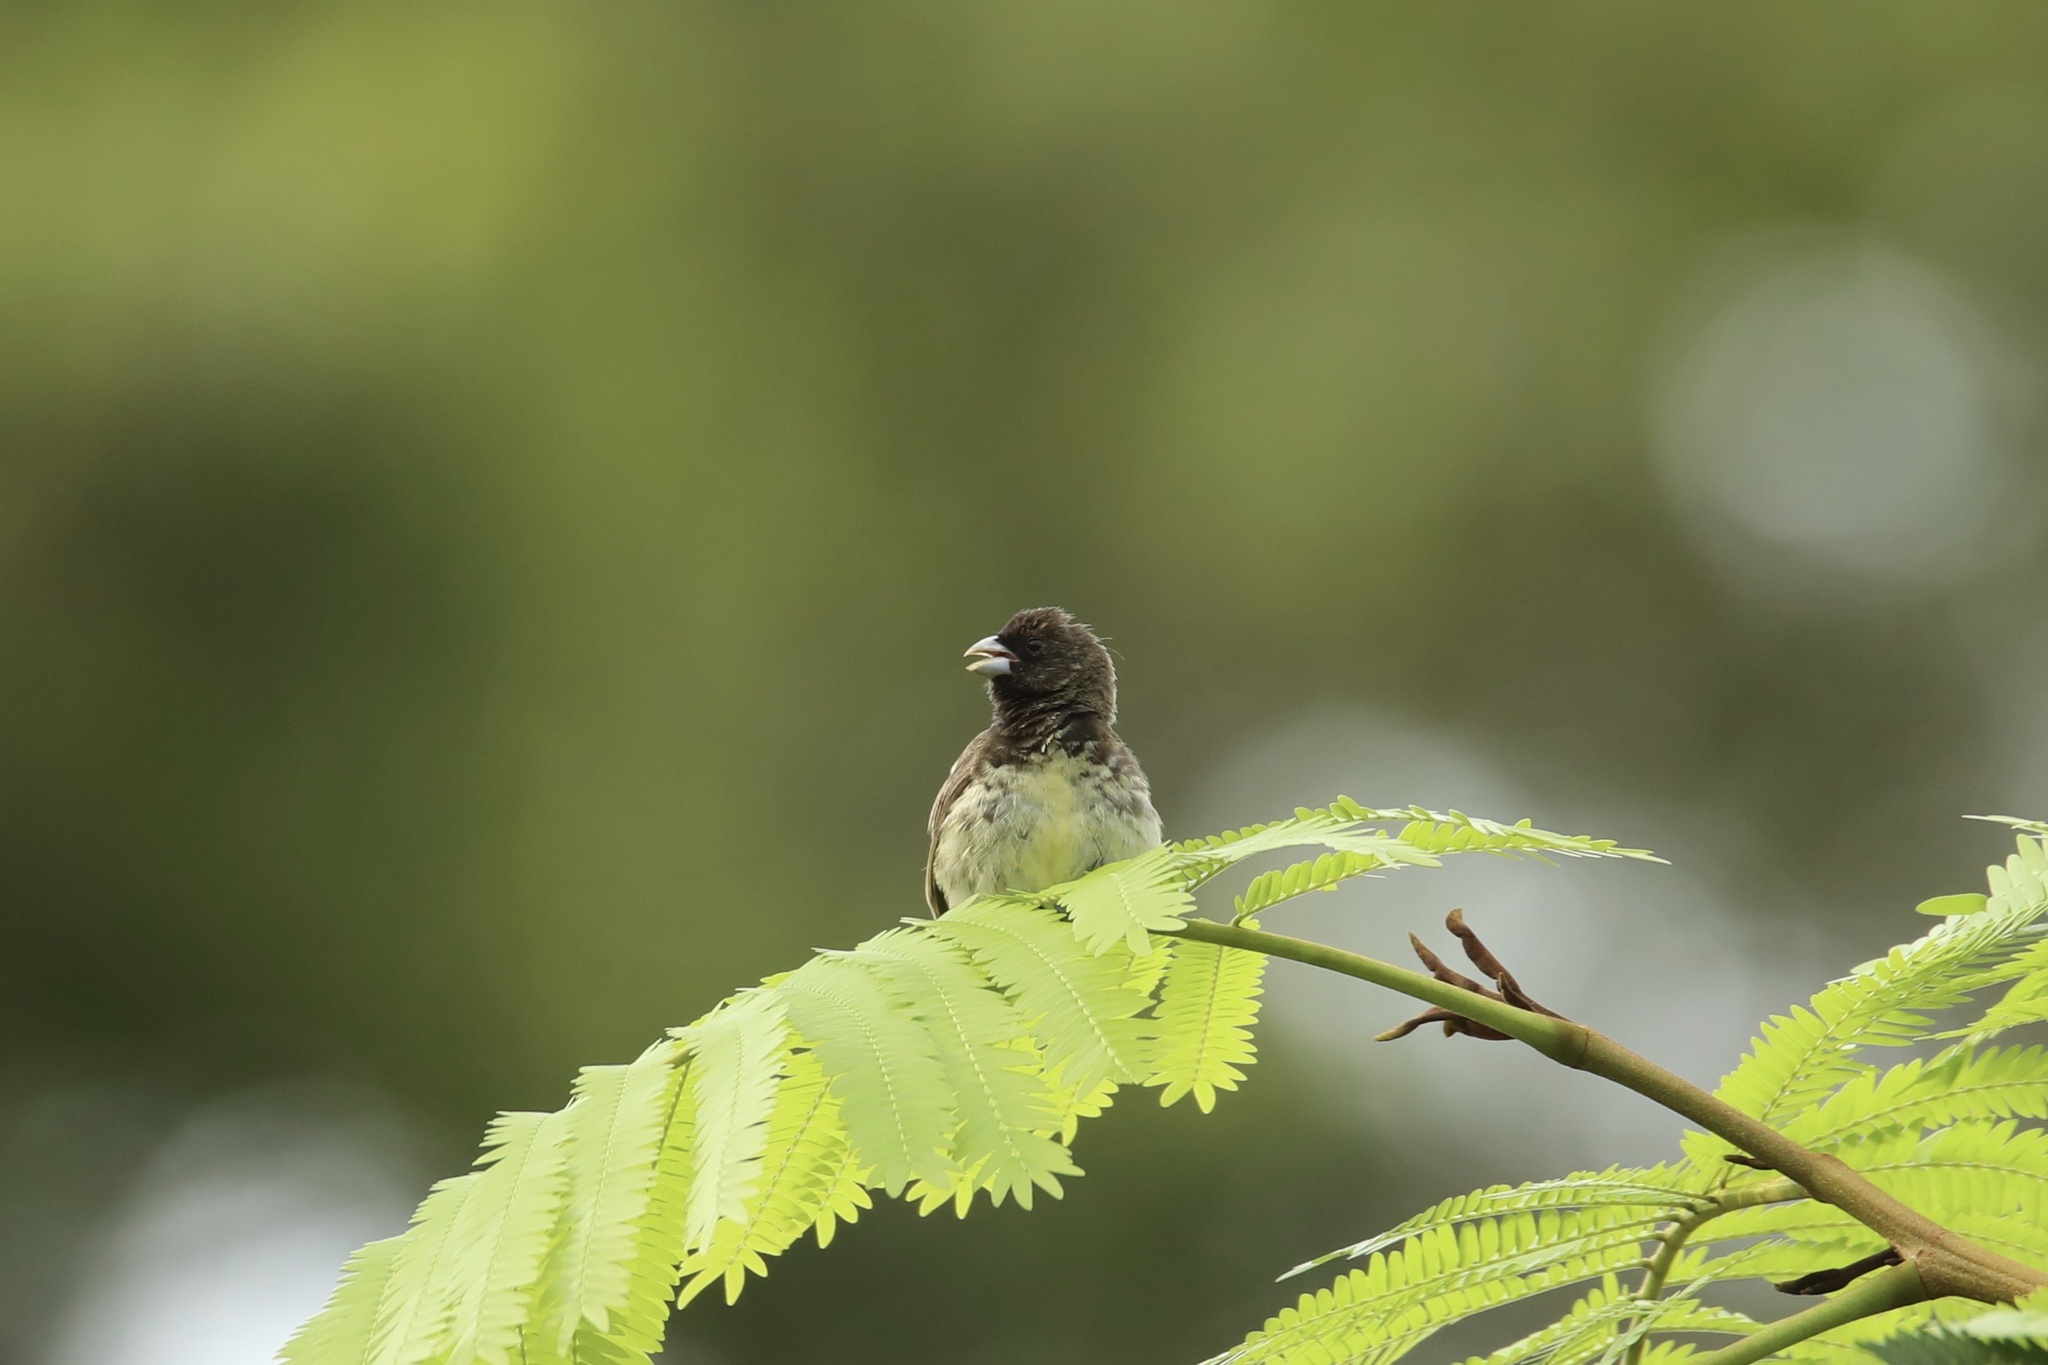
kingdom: Animalia
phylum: Chordata
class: Aves
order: Passeriformes
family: Thraupidae
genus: Sporophila
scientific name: Sporophila nigricollis
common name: Yellow-bellied seedeater
